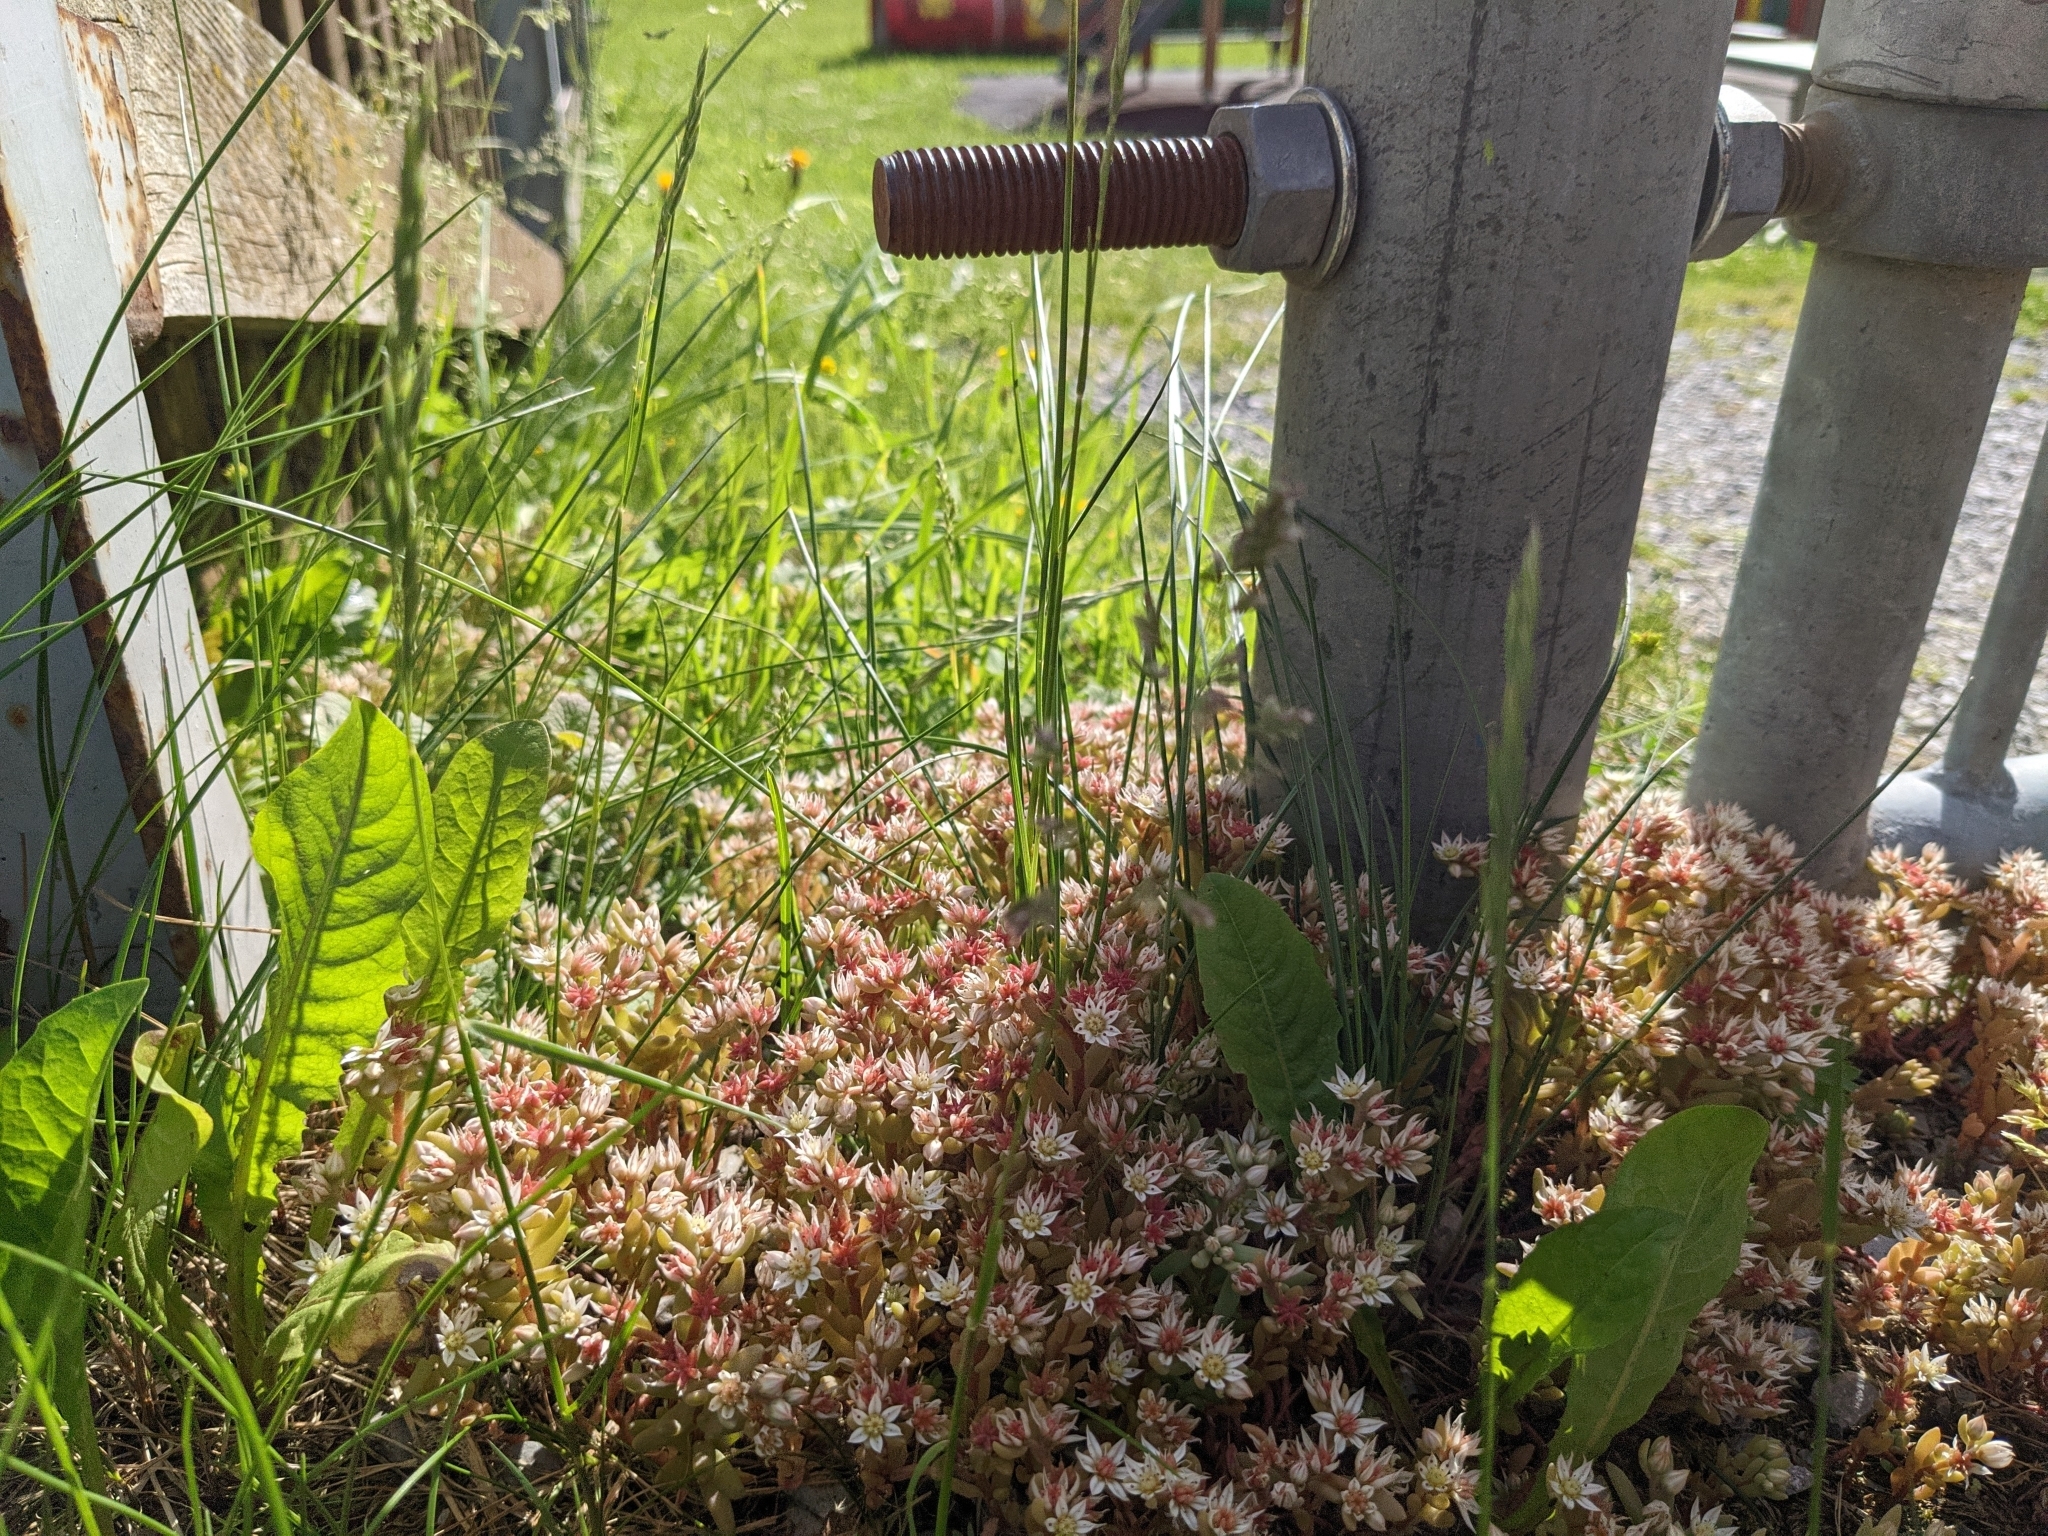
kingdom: Plantae
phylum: Tracheophyta
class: Magnoliopsida
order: Saxifragales
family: Crassulaceae
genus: Sedum
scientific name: Sedum hispanicum
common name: Spanish stonecrop
